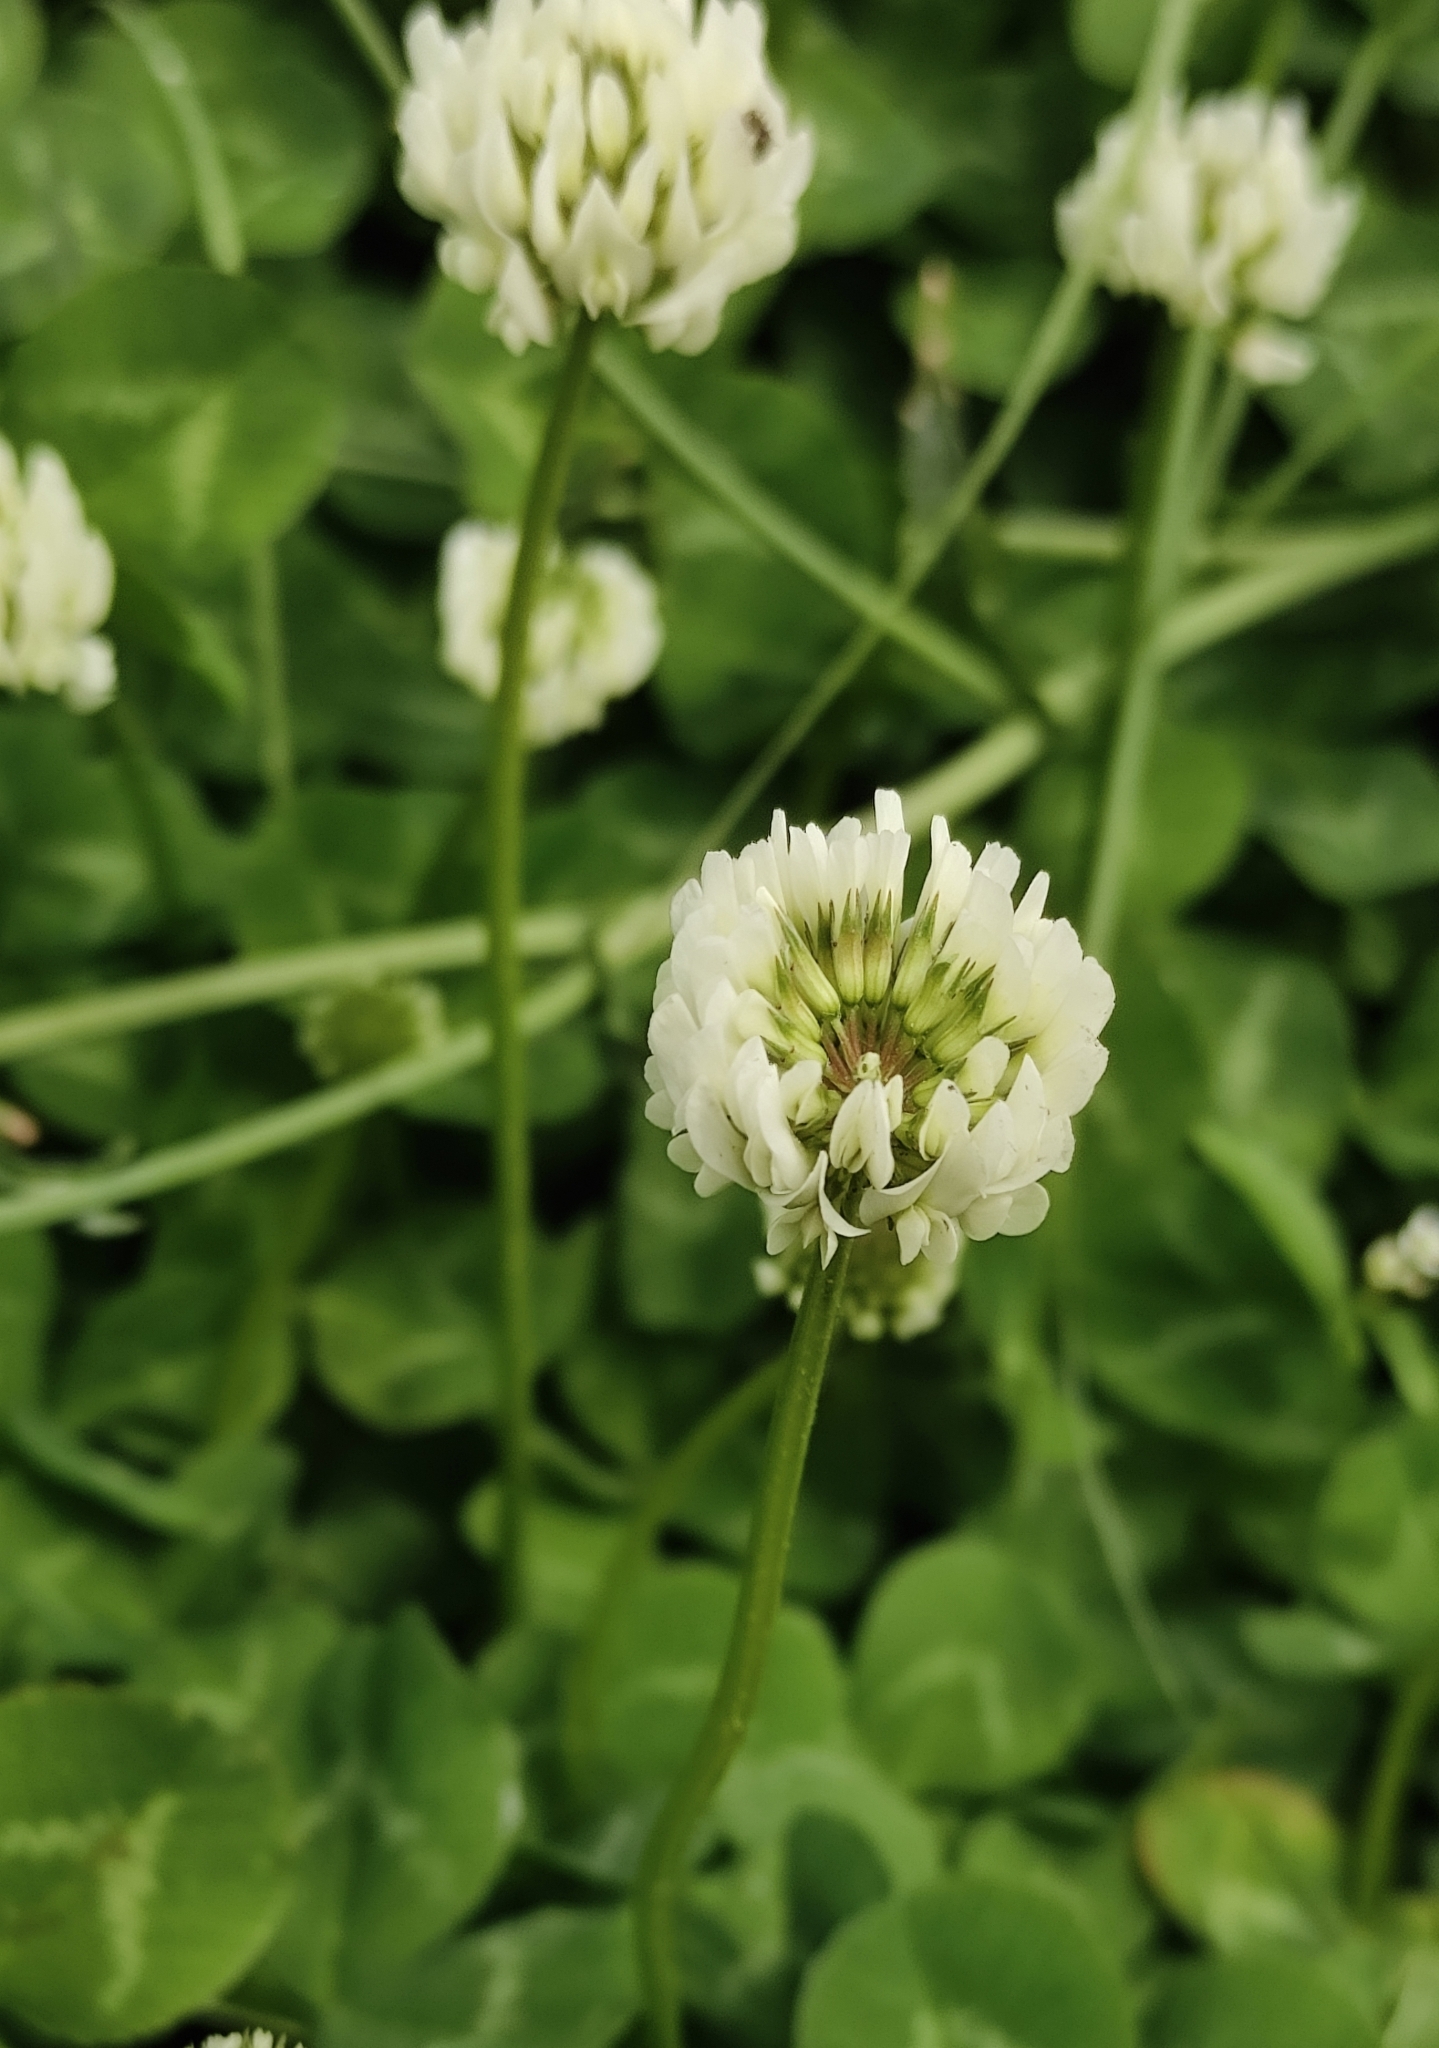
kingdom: Plantae
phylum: Tracheophyta
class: Magnoliopsida
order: Fabales
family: Fabaceae
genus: Trifolium
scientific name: Trifolium repens
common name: White clover
